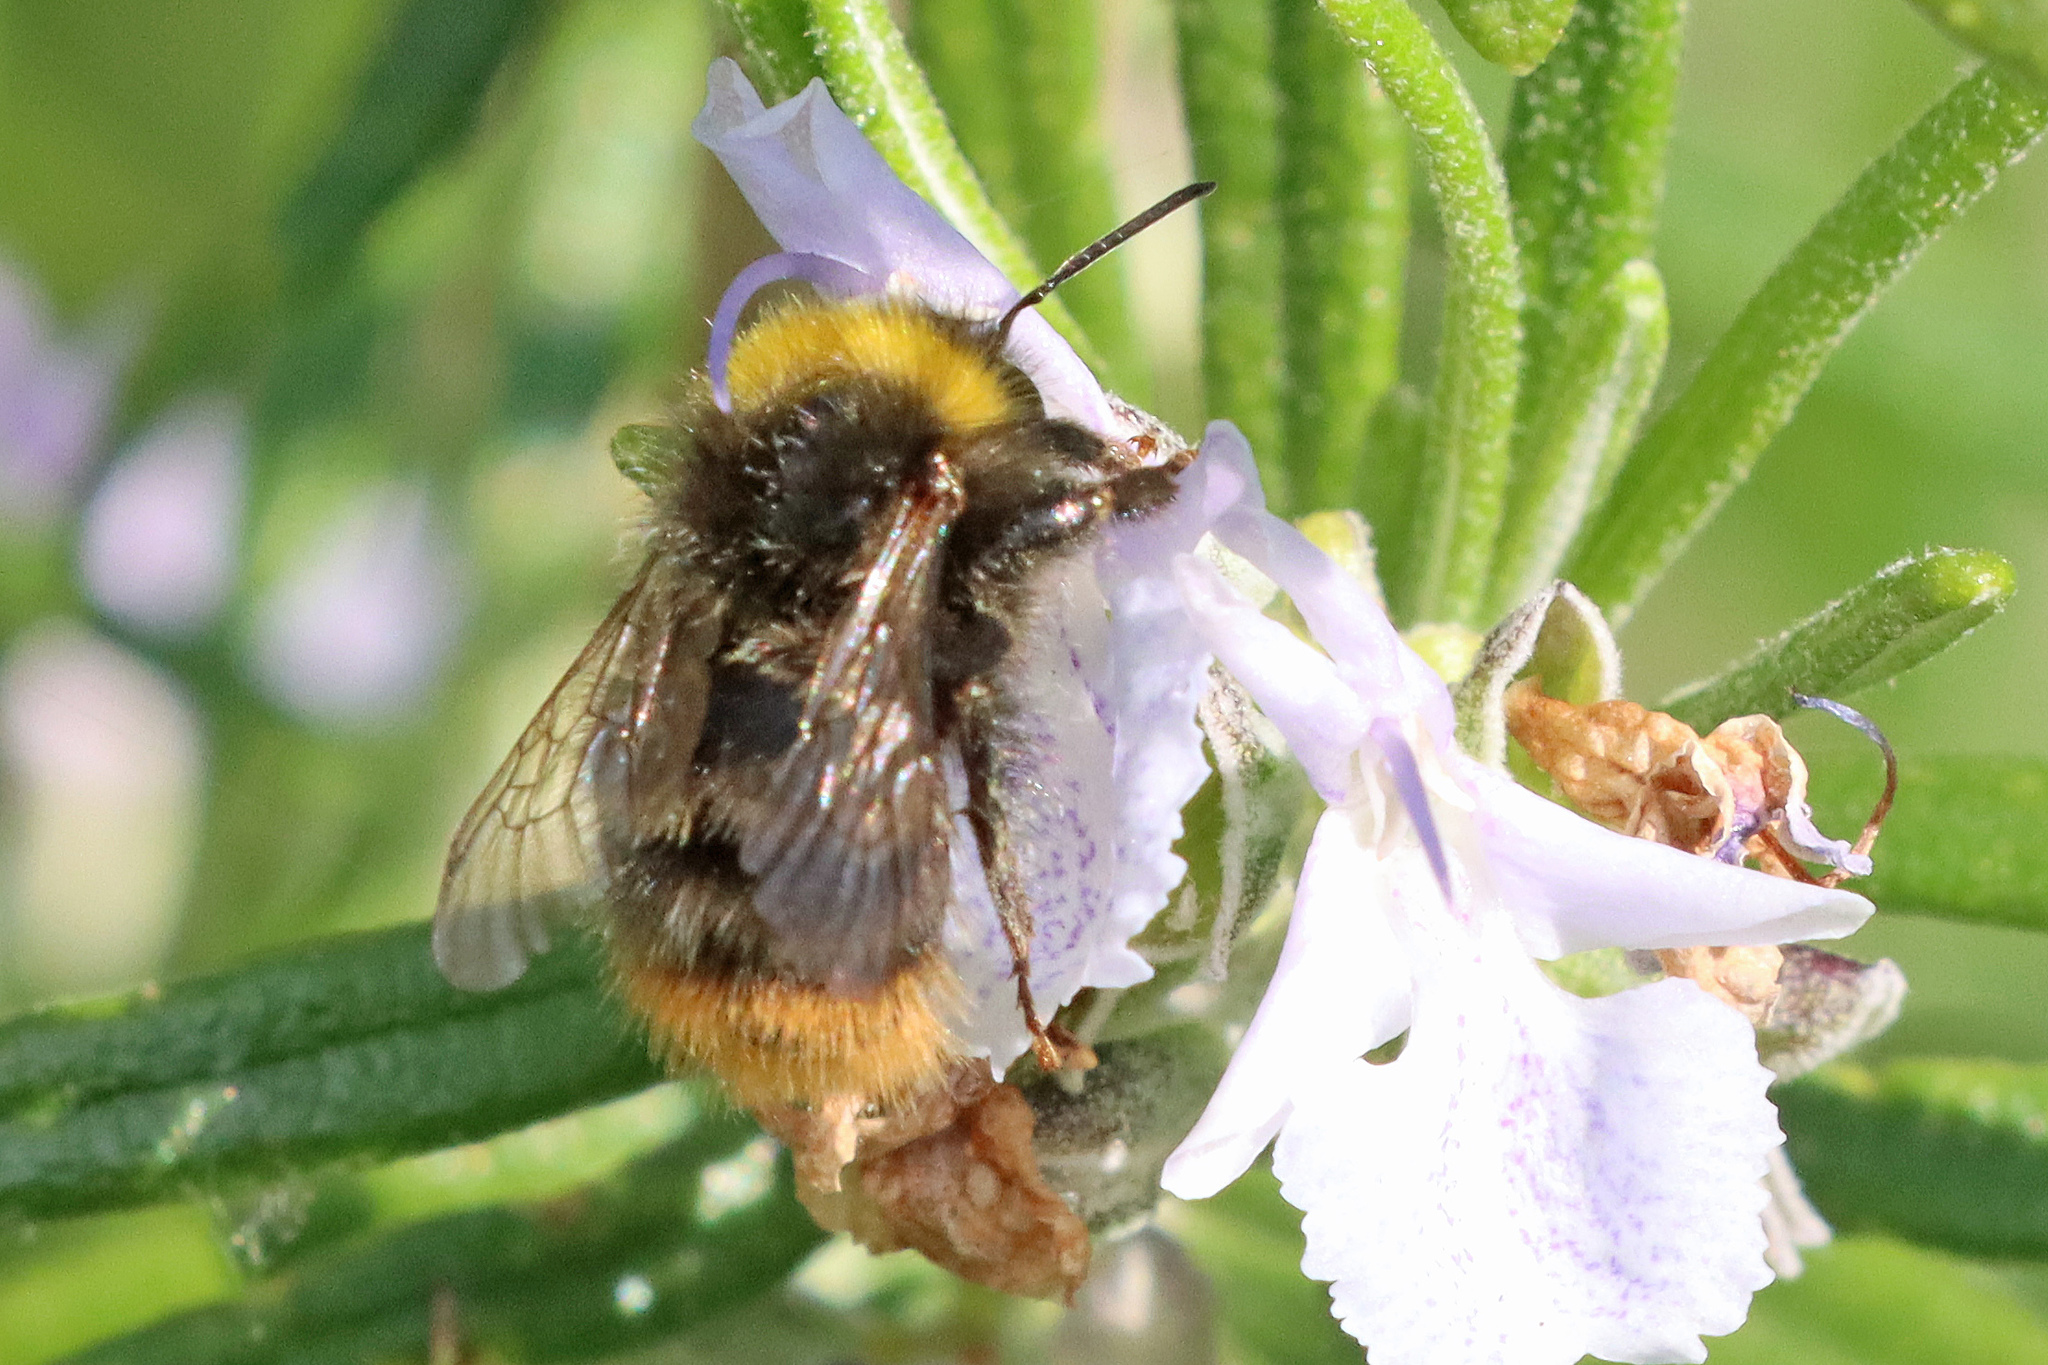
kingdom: Animalia
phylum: Arthropoda
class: Insecta
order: Hymenoptera
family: Apidae
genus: Bombus
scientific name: Bombus pratorum
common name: Early humble-bee
